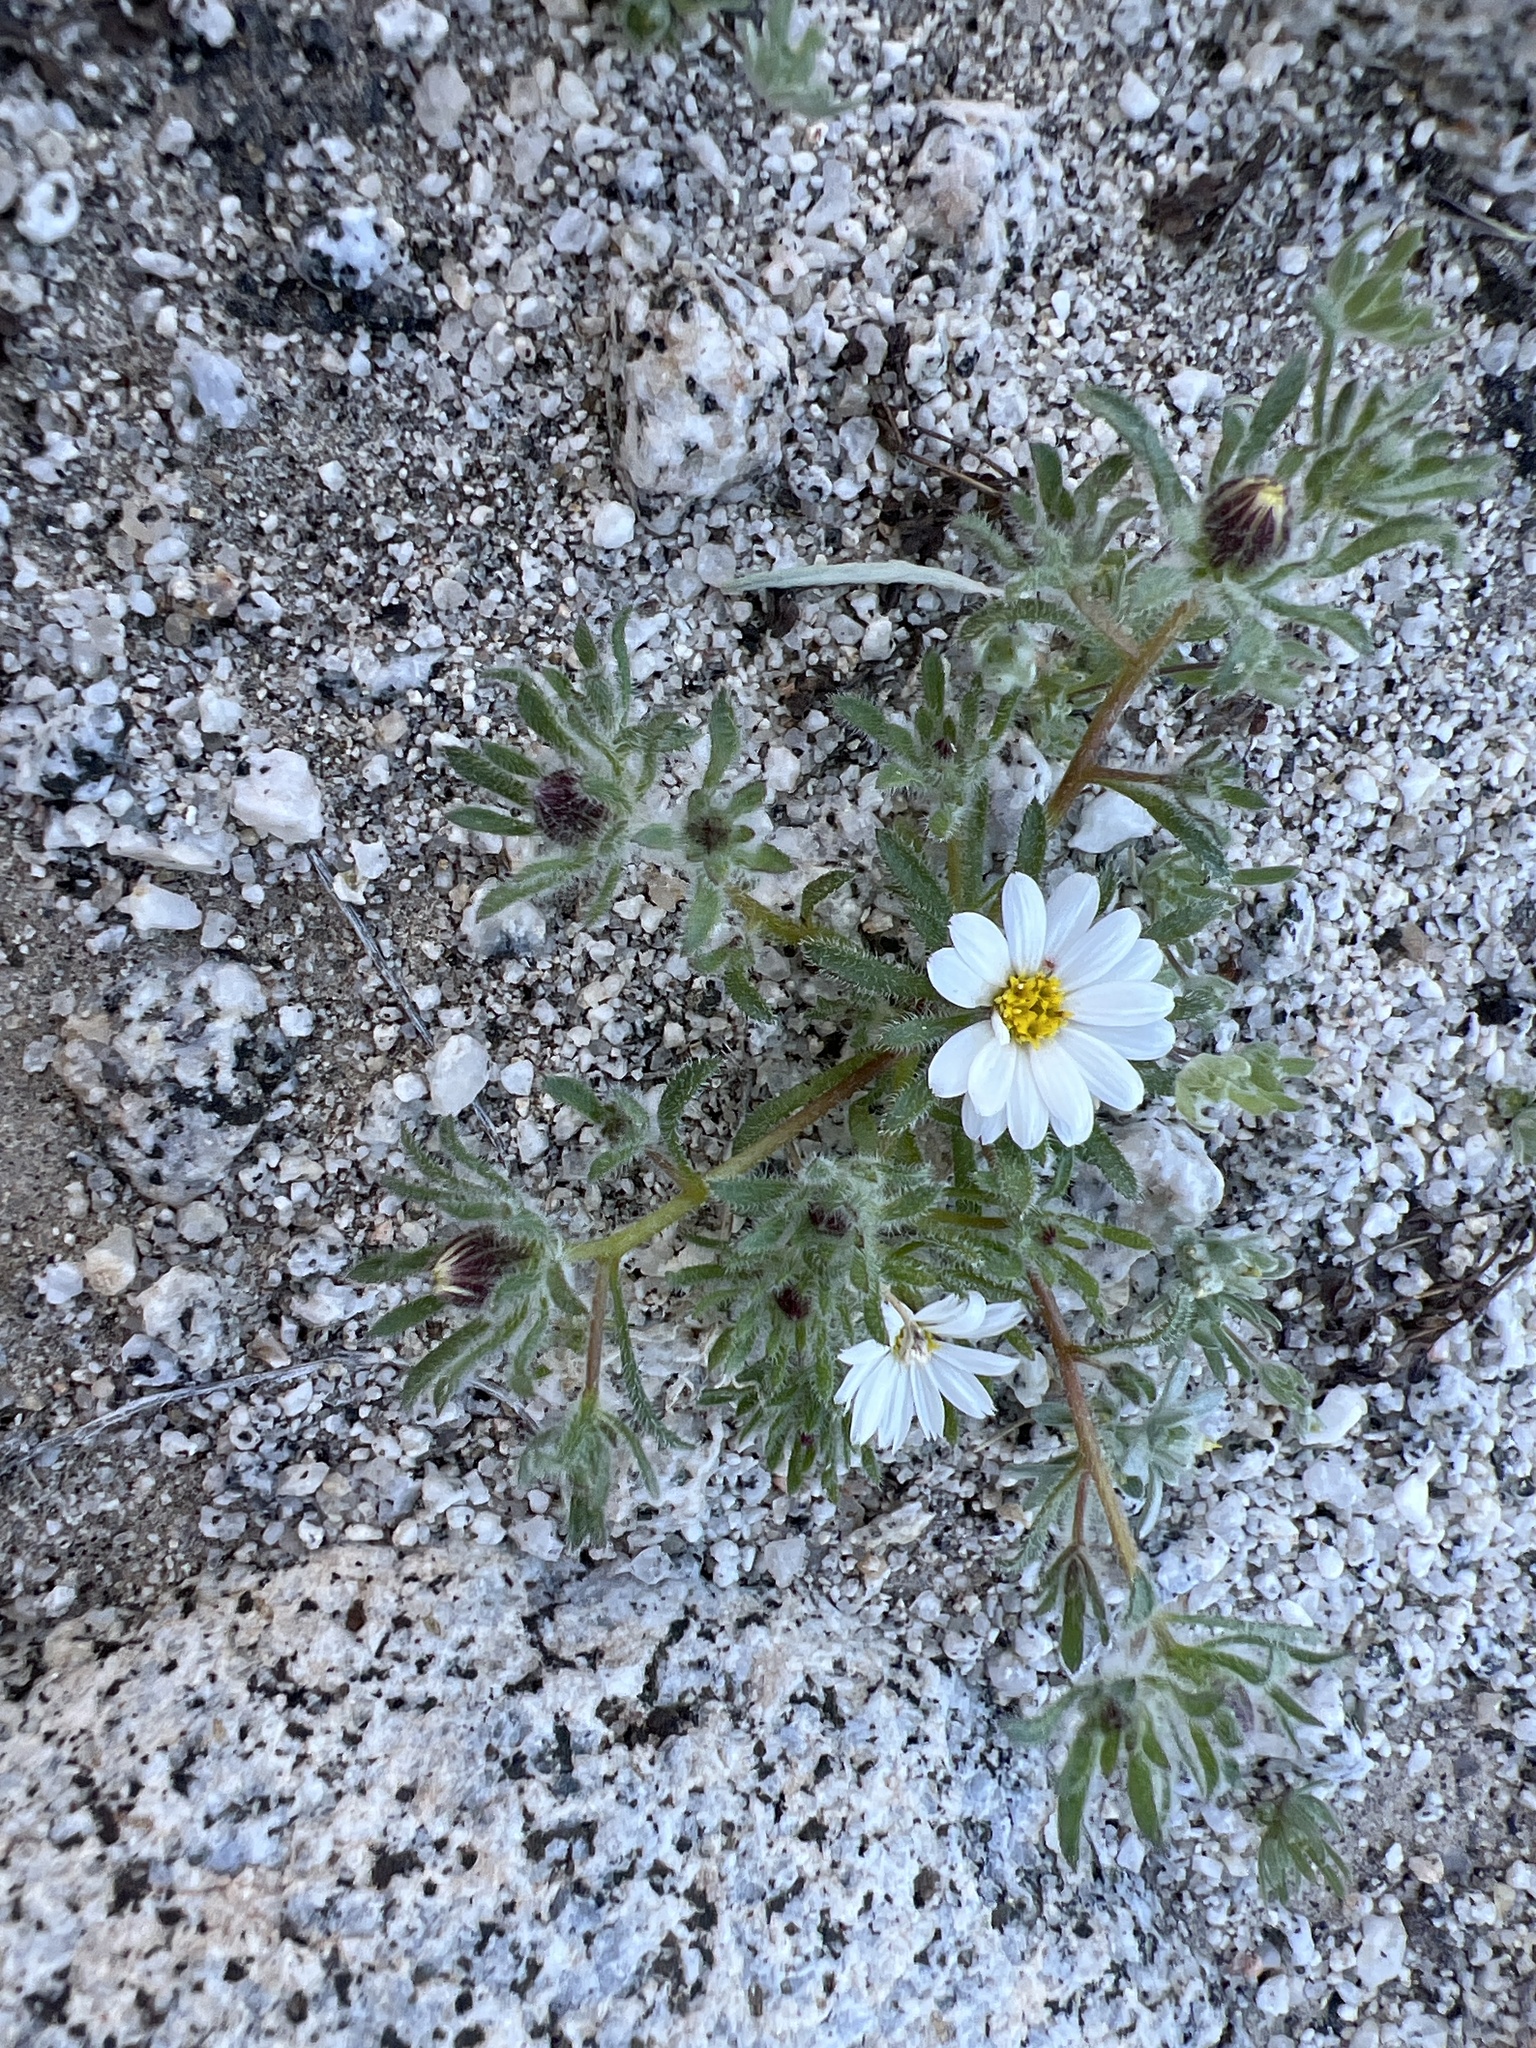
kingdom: Plantae
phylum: Tracheophyta
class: Magnoliopsida
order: Asterales
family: Asteraceae
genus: Monoptilon
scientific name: Monoptilon bellioides
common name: Bristly desertstar
